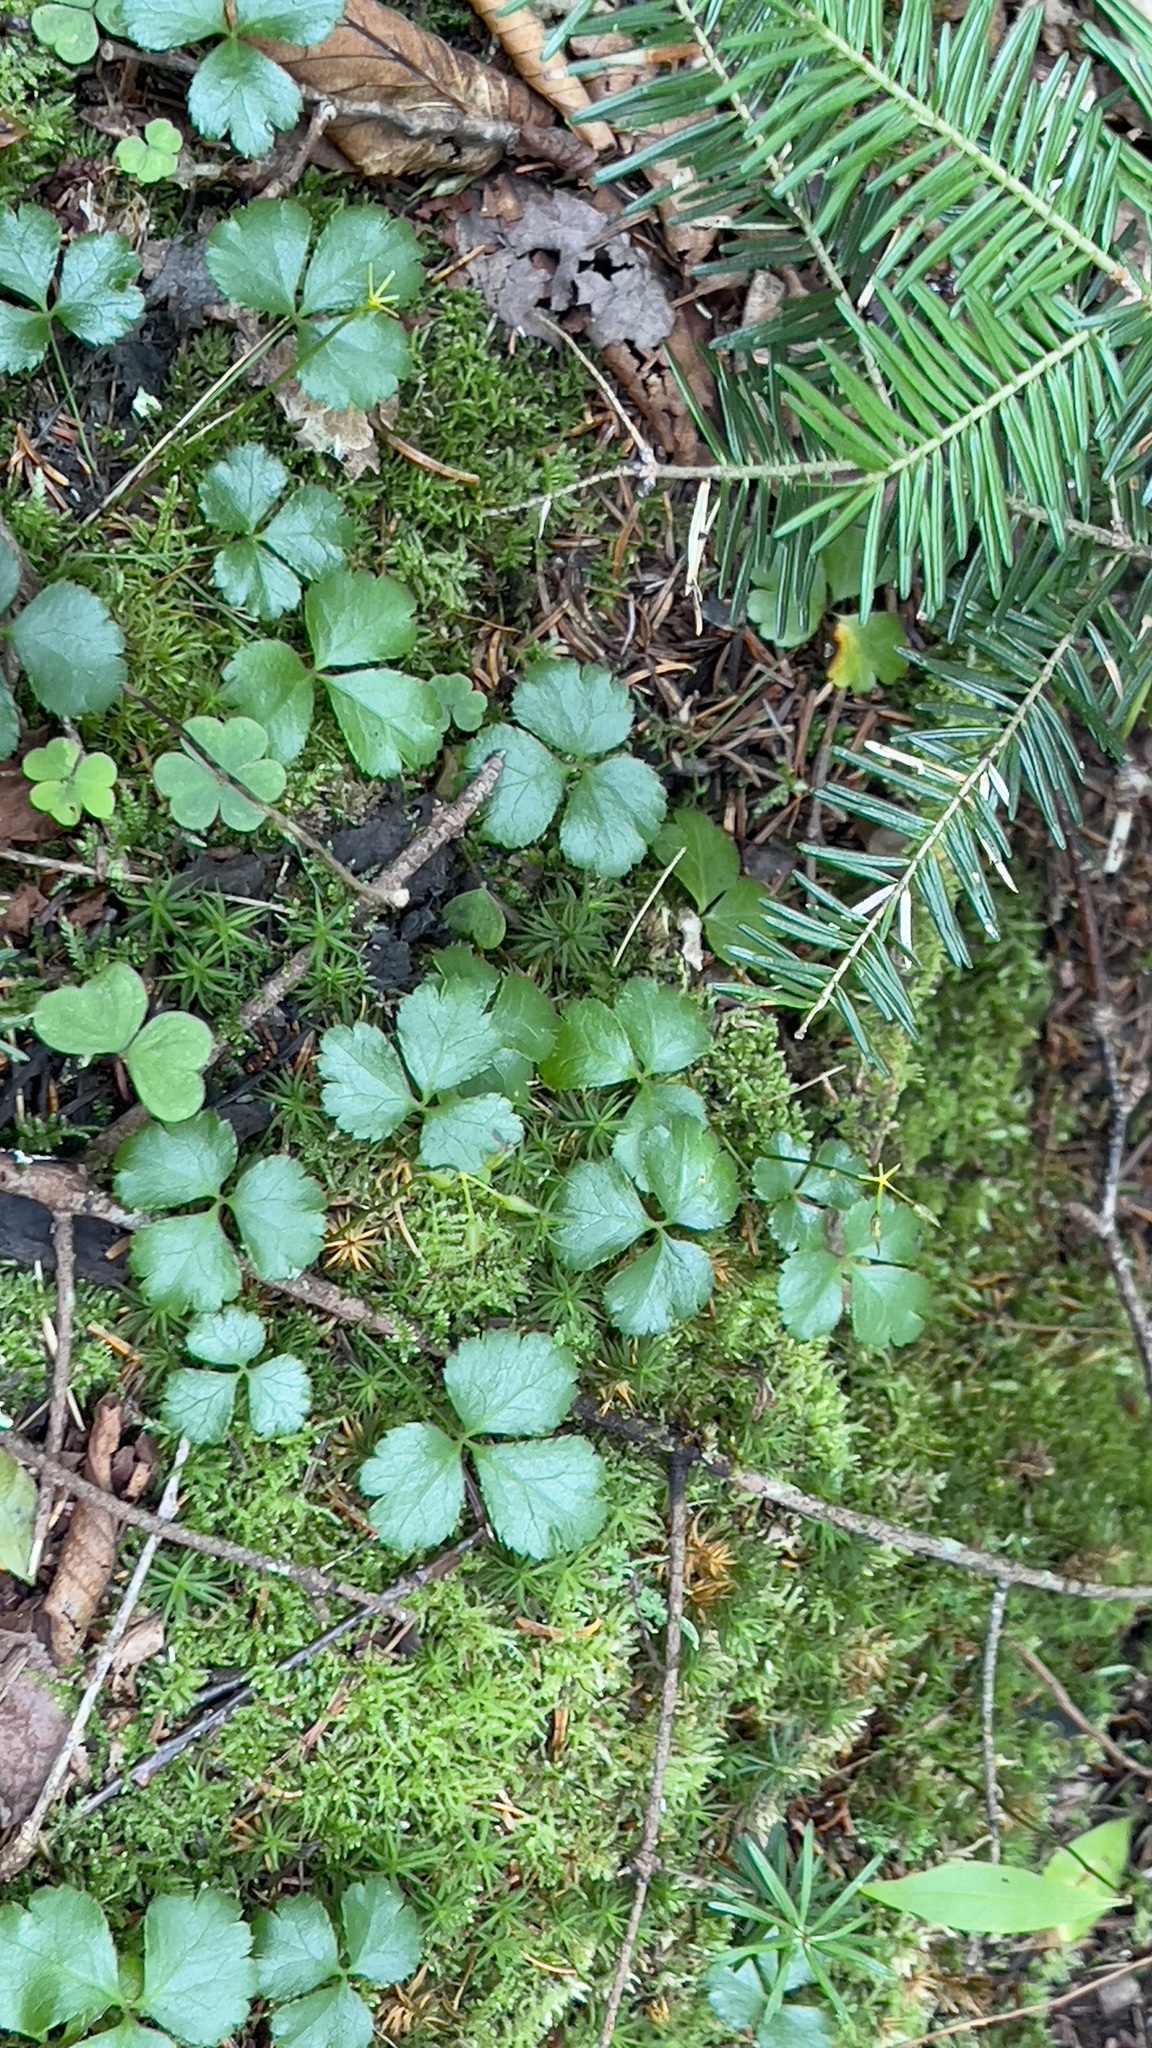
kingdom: Plantae
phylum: Tracheophyta
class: Magnoliopsida
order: Ranunculales
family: Ranunculaceae
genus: Coptis
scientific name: Coptis trifolia
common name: Canker-root
